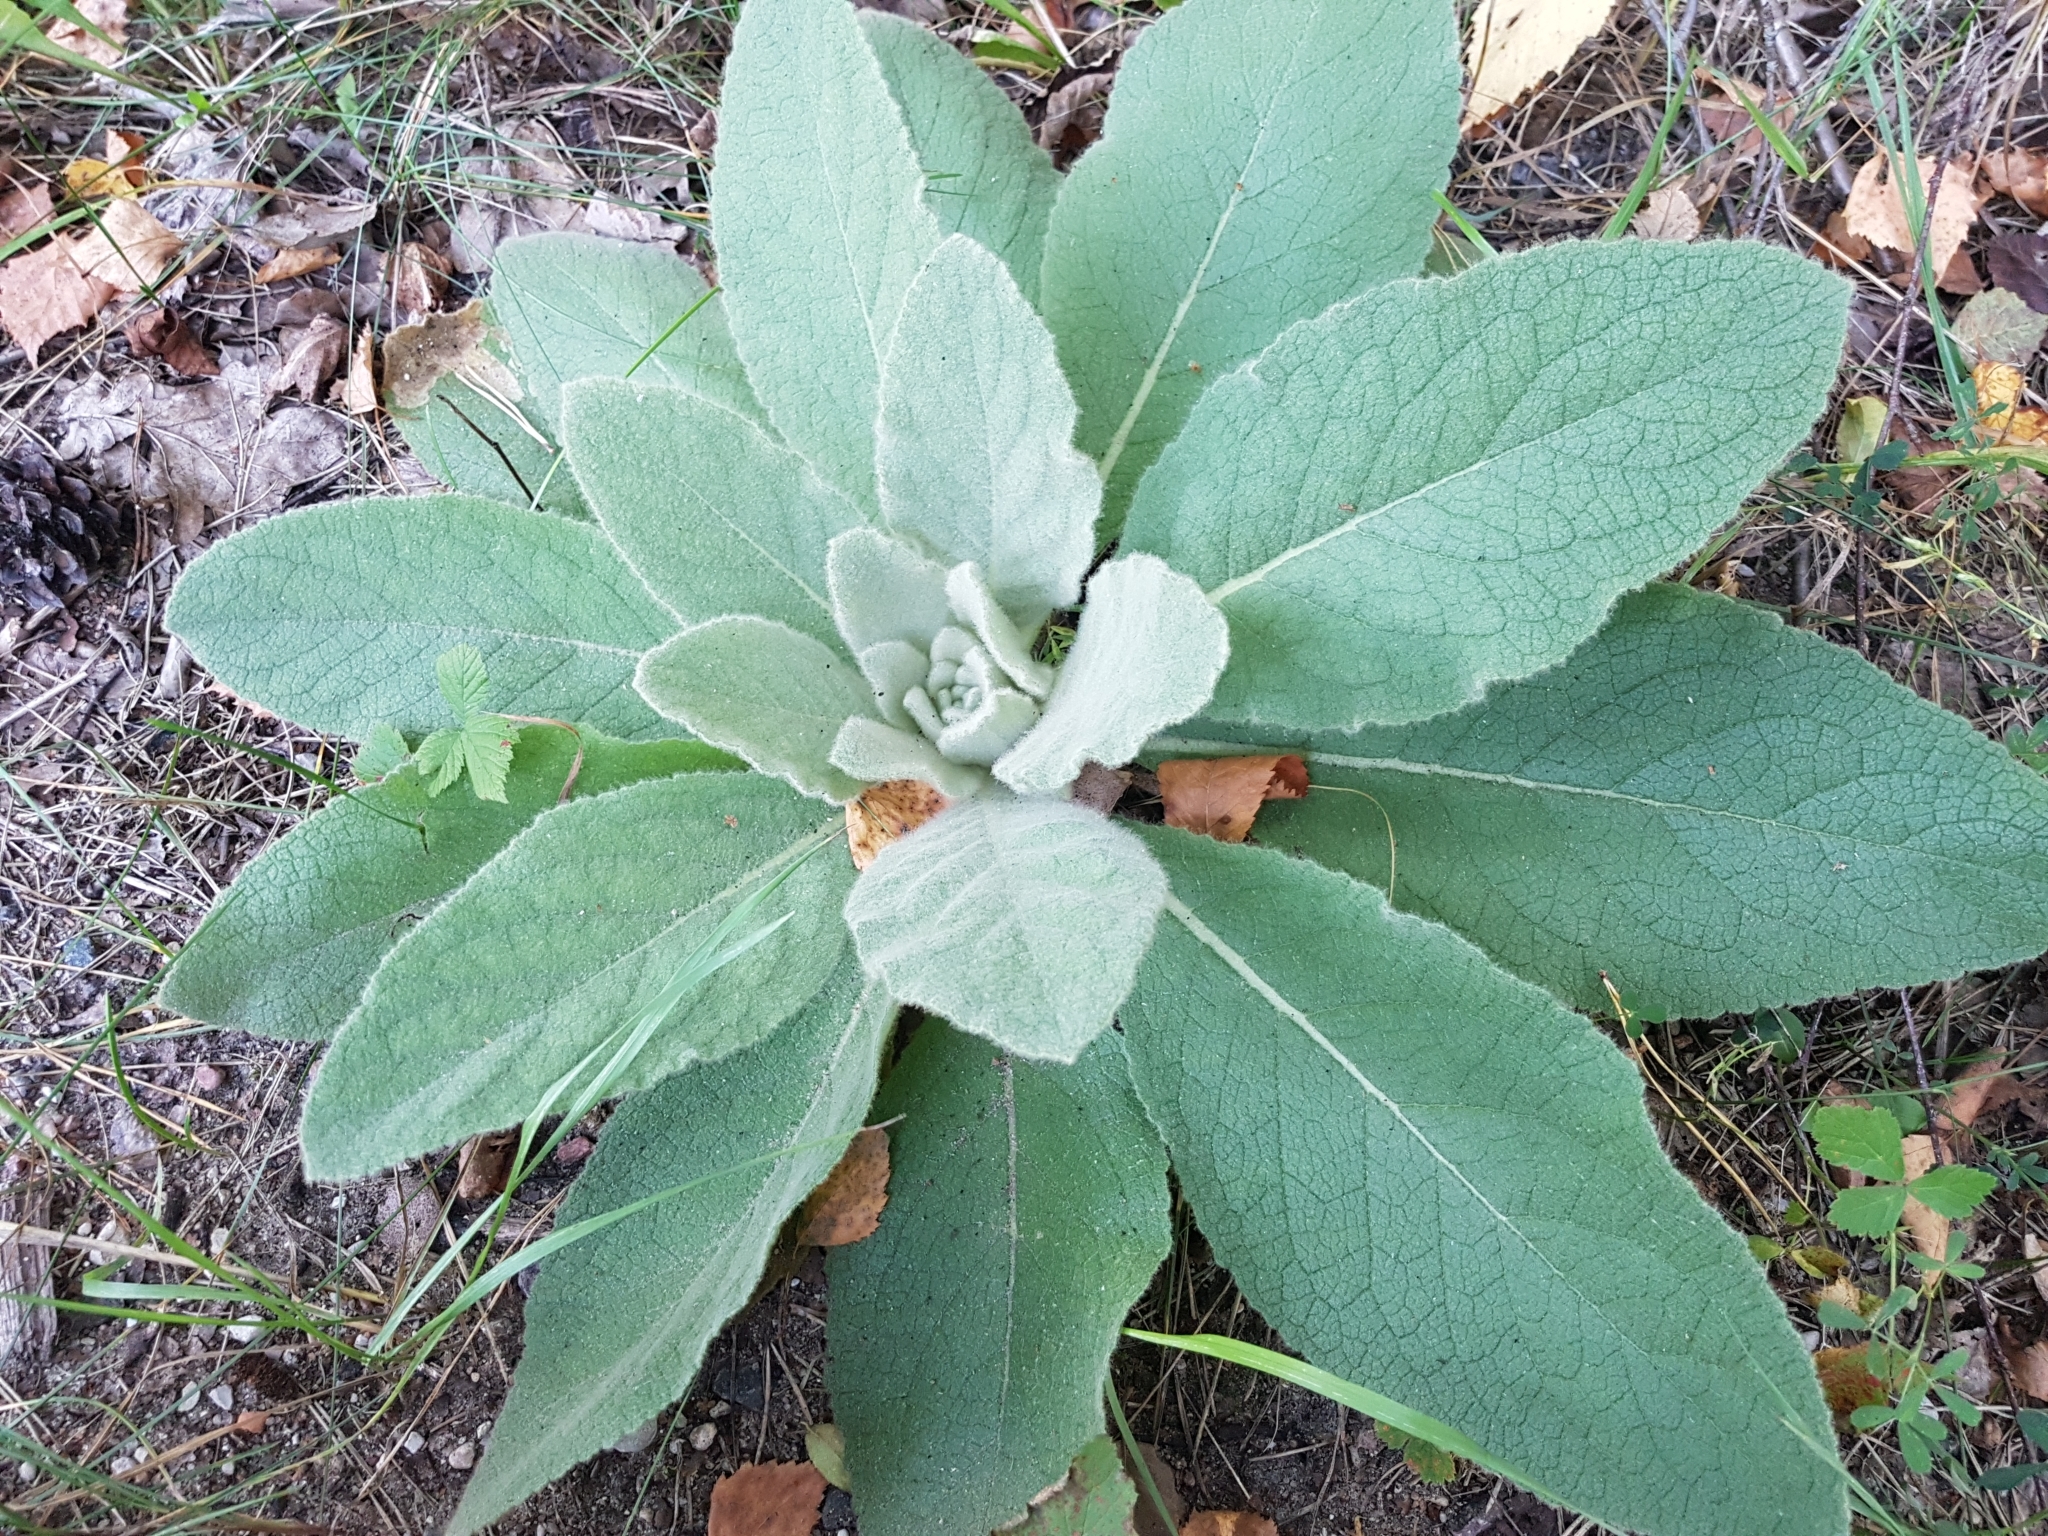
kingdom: Plantae
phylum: Tracheophyta
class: Magnoliopsida
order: Lamiales
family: Scrophulariaceae
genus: Verbascum
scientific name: Verbascum thapsus
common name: Common mullein
